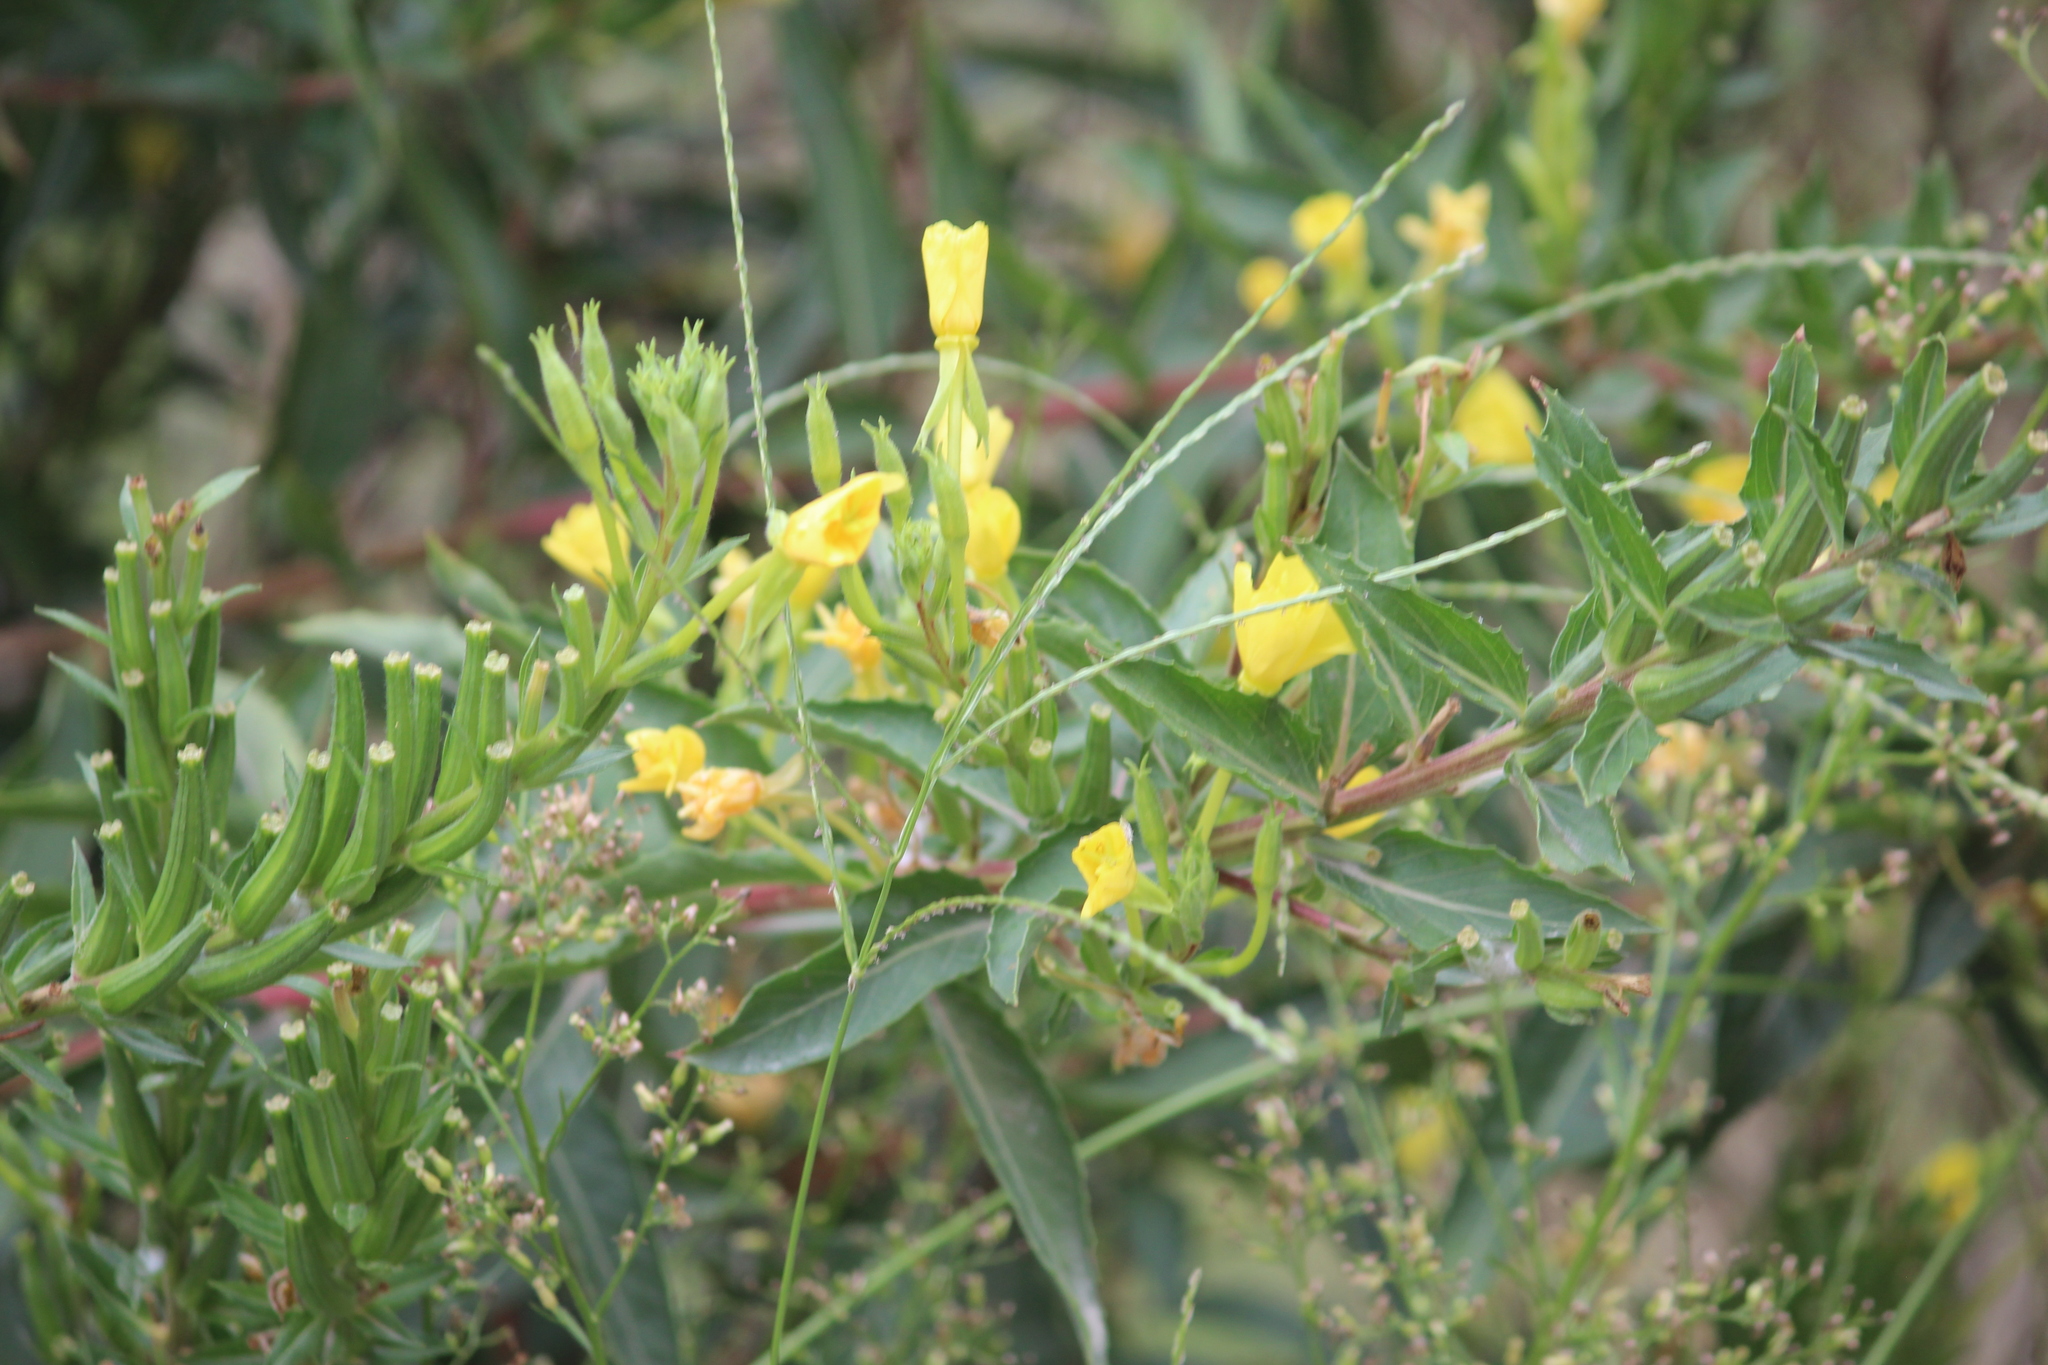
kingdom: Plantae
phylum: Tracheophyta
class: Magnoliopsida
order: Myrtales
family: Onagraceae
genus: Oenothera
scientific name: Oenothera biennis
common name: Common evening-primrose
